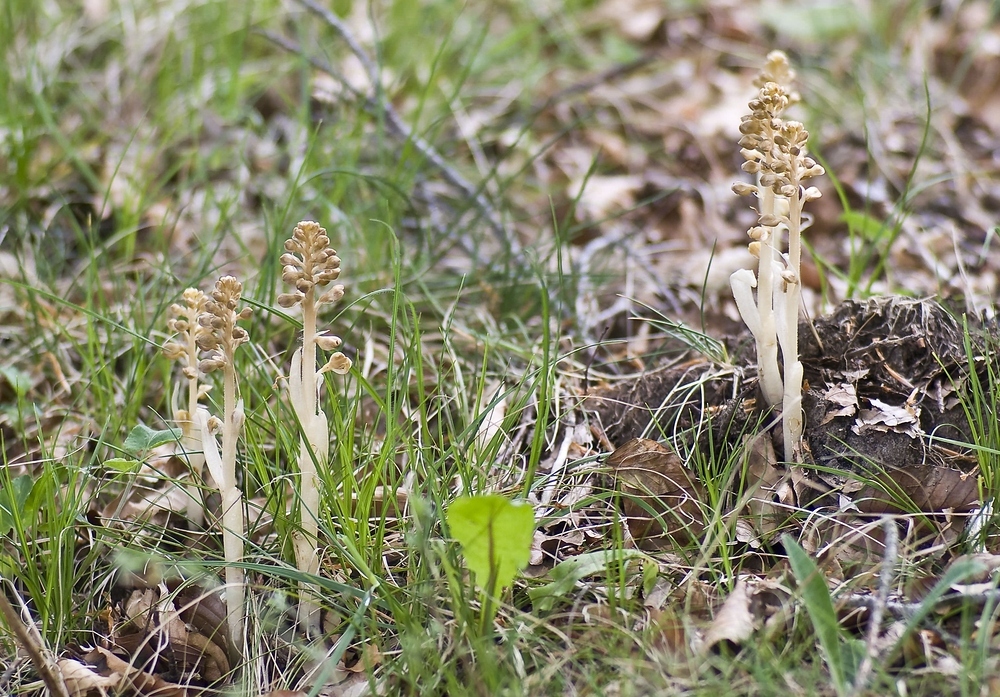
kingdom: Plantae
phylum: Tracheophyta
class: Liliopsida
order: Asparagales
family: Orchidaceae
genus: Neottia
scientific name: Neottia nidus-avis
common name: Bird's-nest orchid
